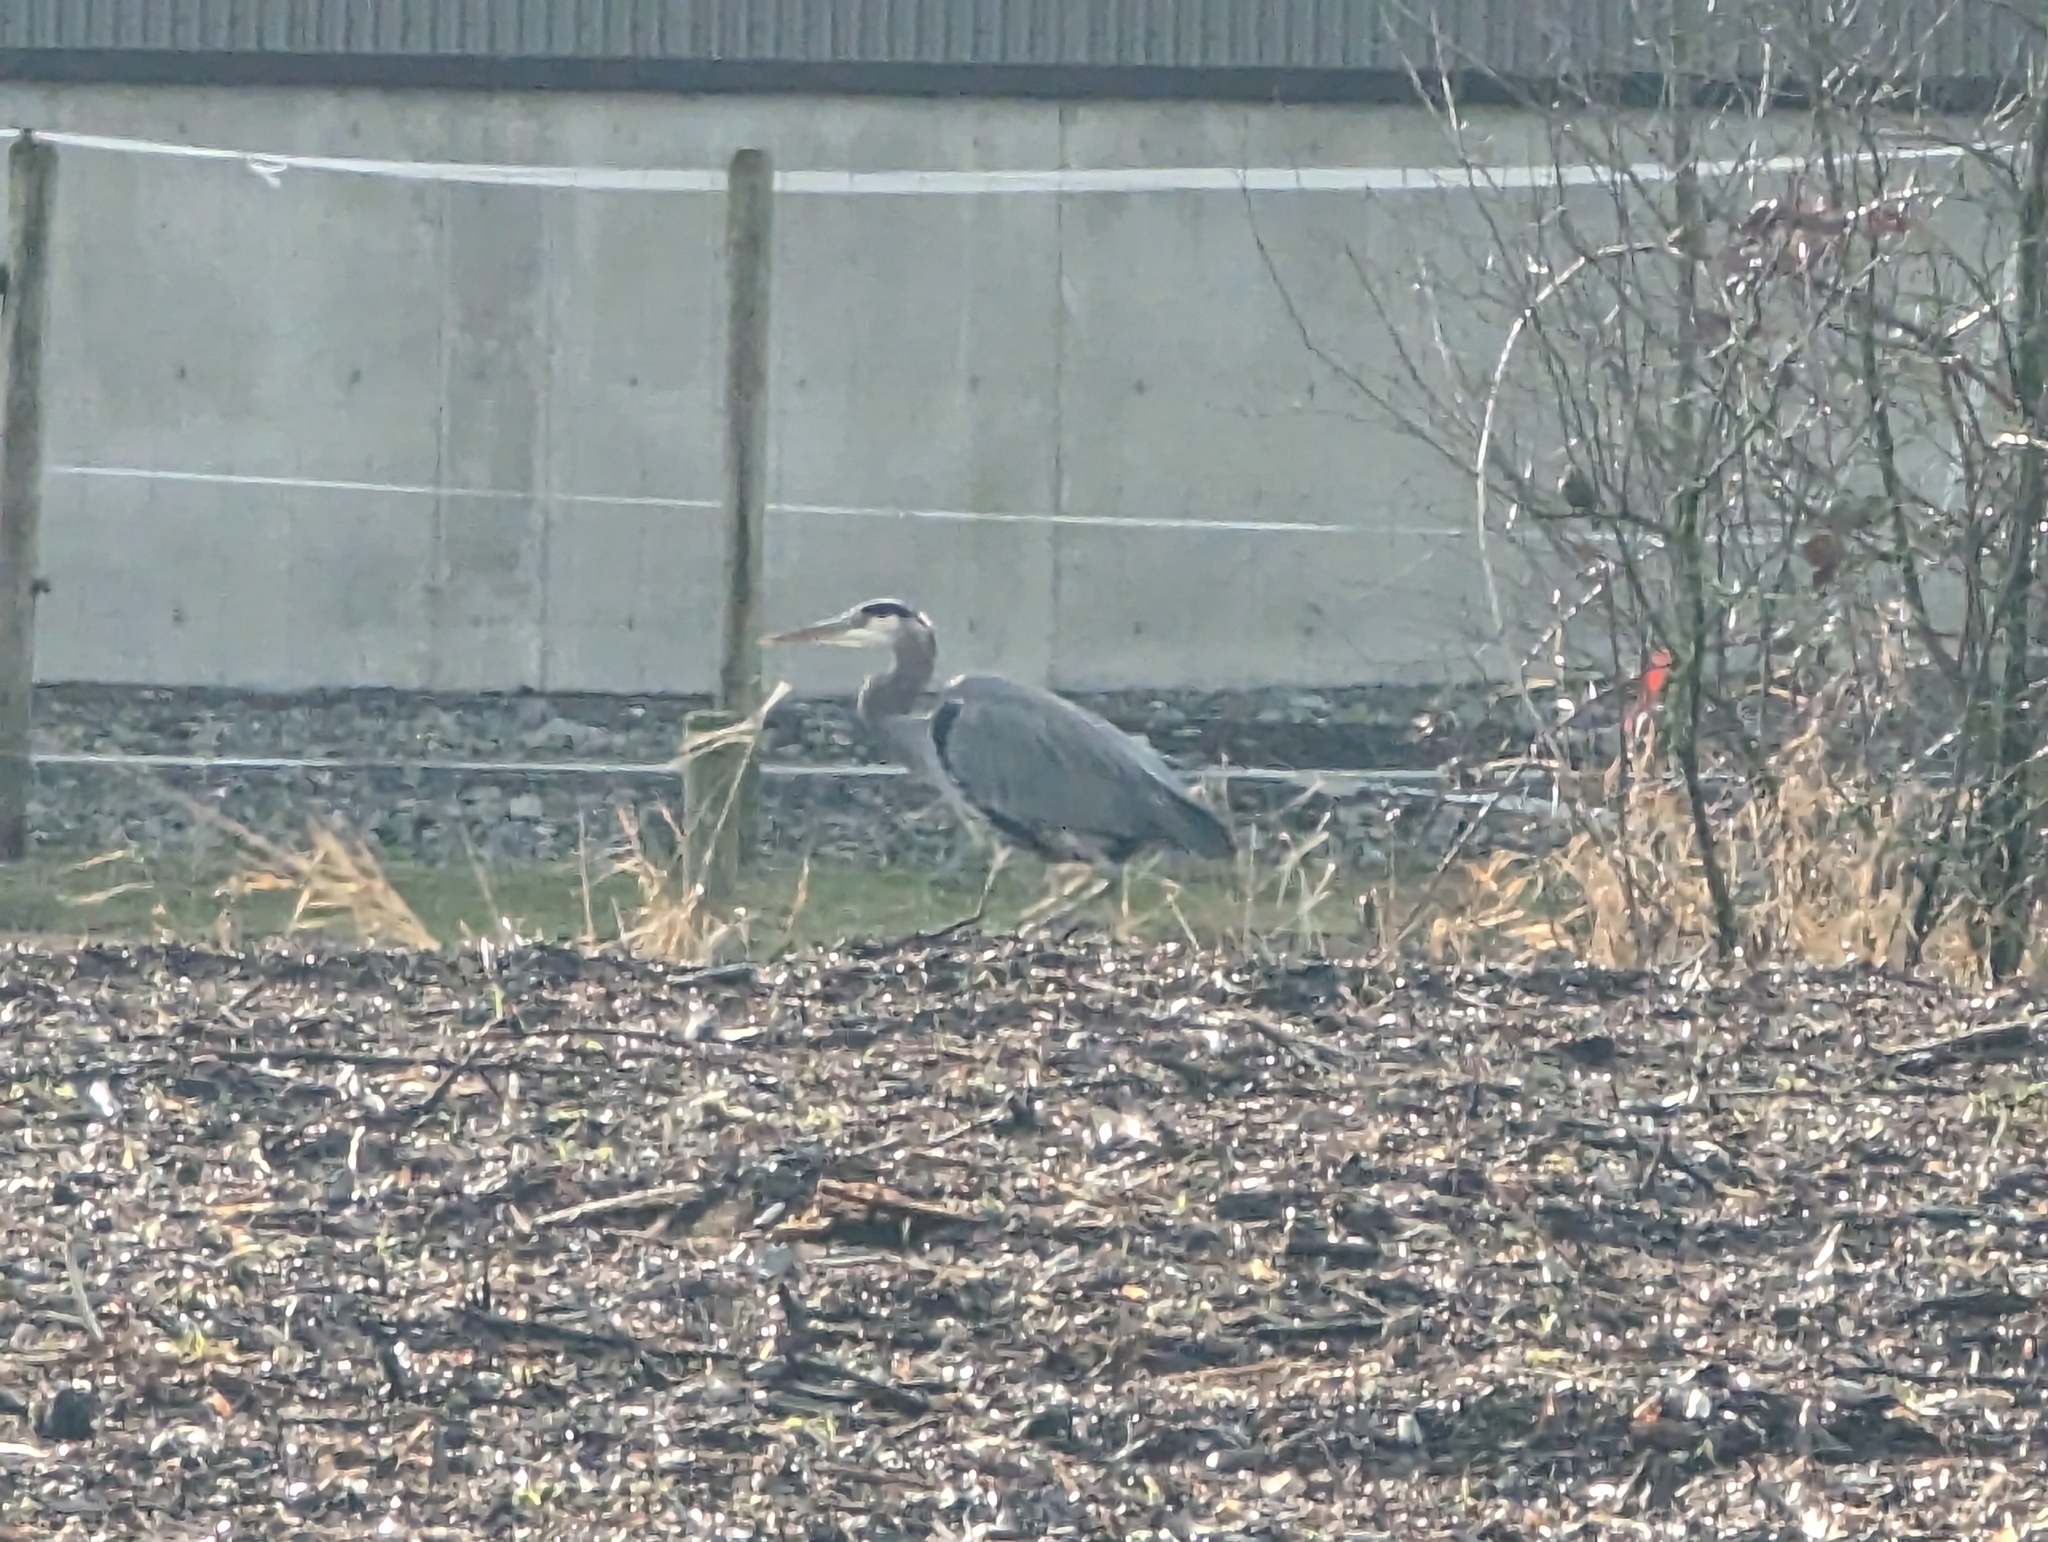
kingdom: Animalia
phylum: Chordata
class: Aves
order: Pelecaniformes
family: Ardeidae
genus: Ardea
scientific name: Ardea herodias
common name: Great blue heron
